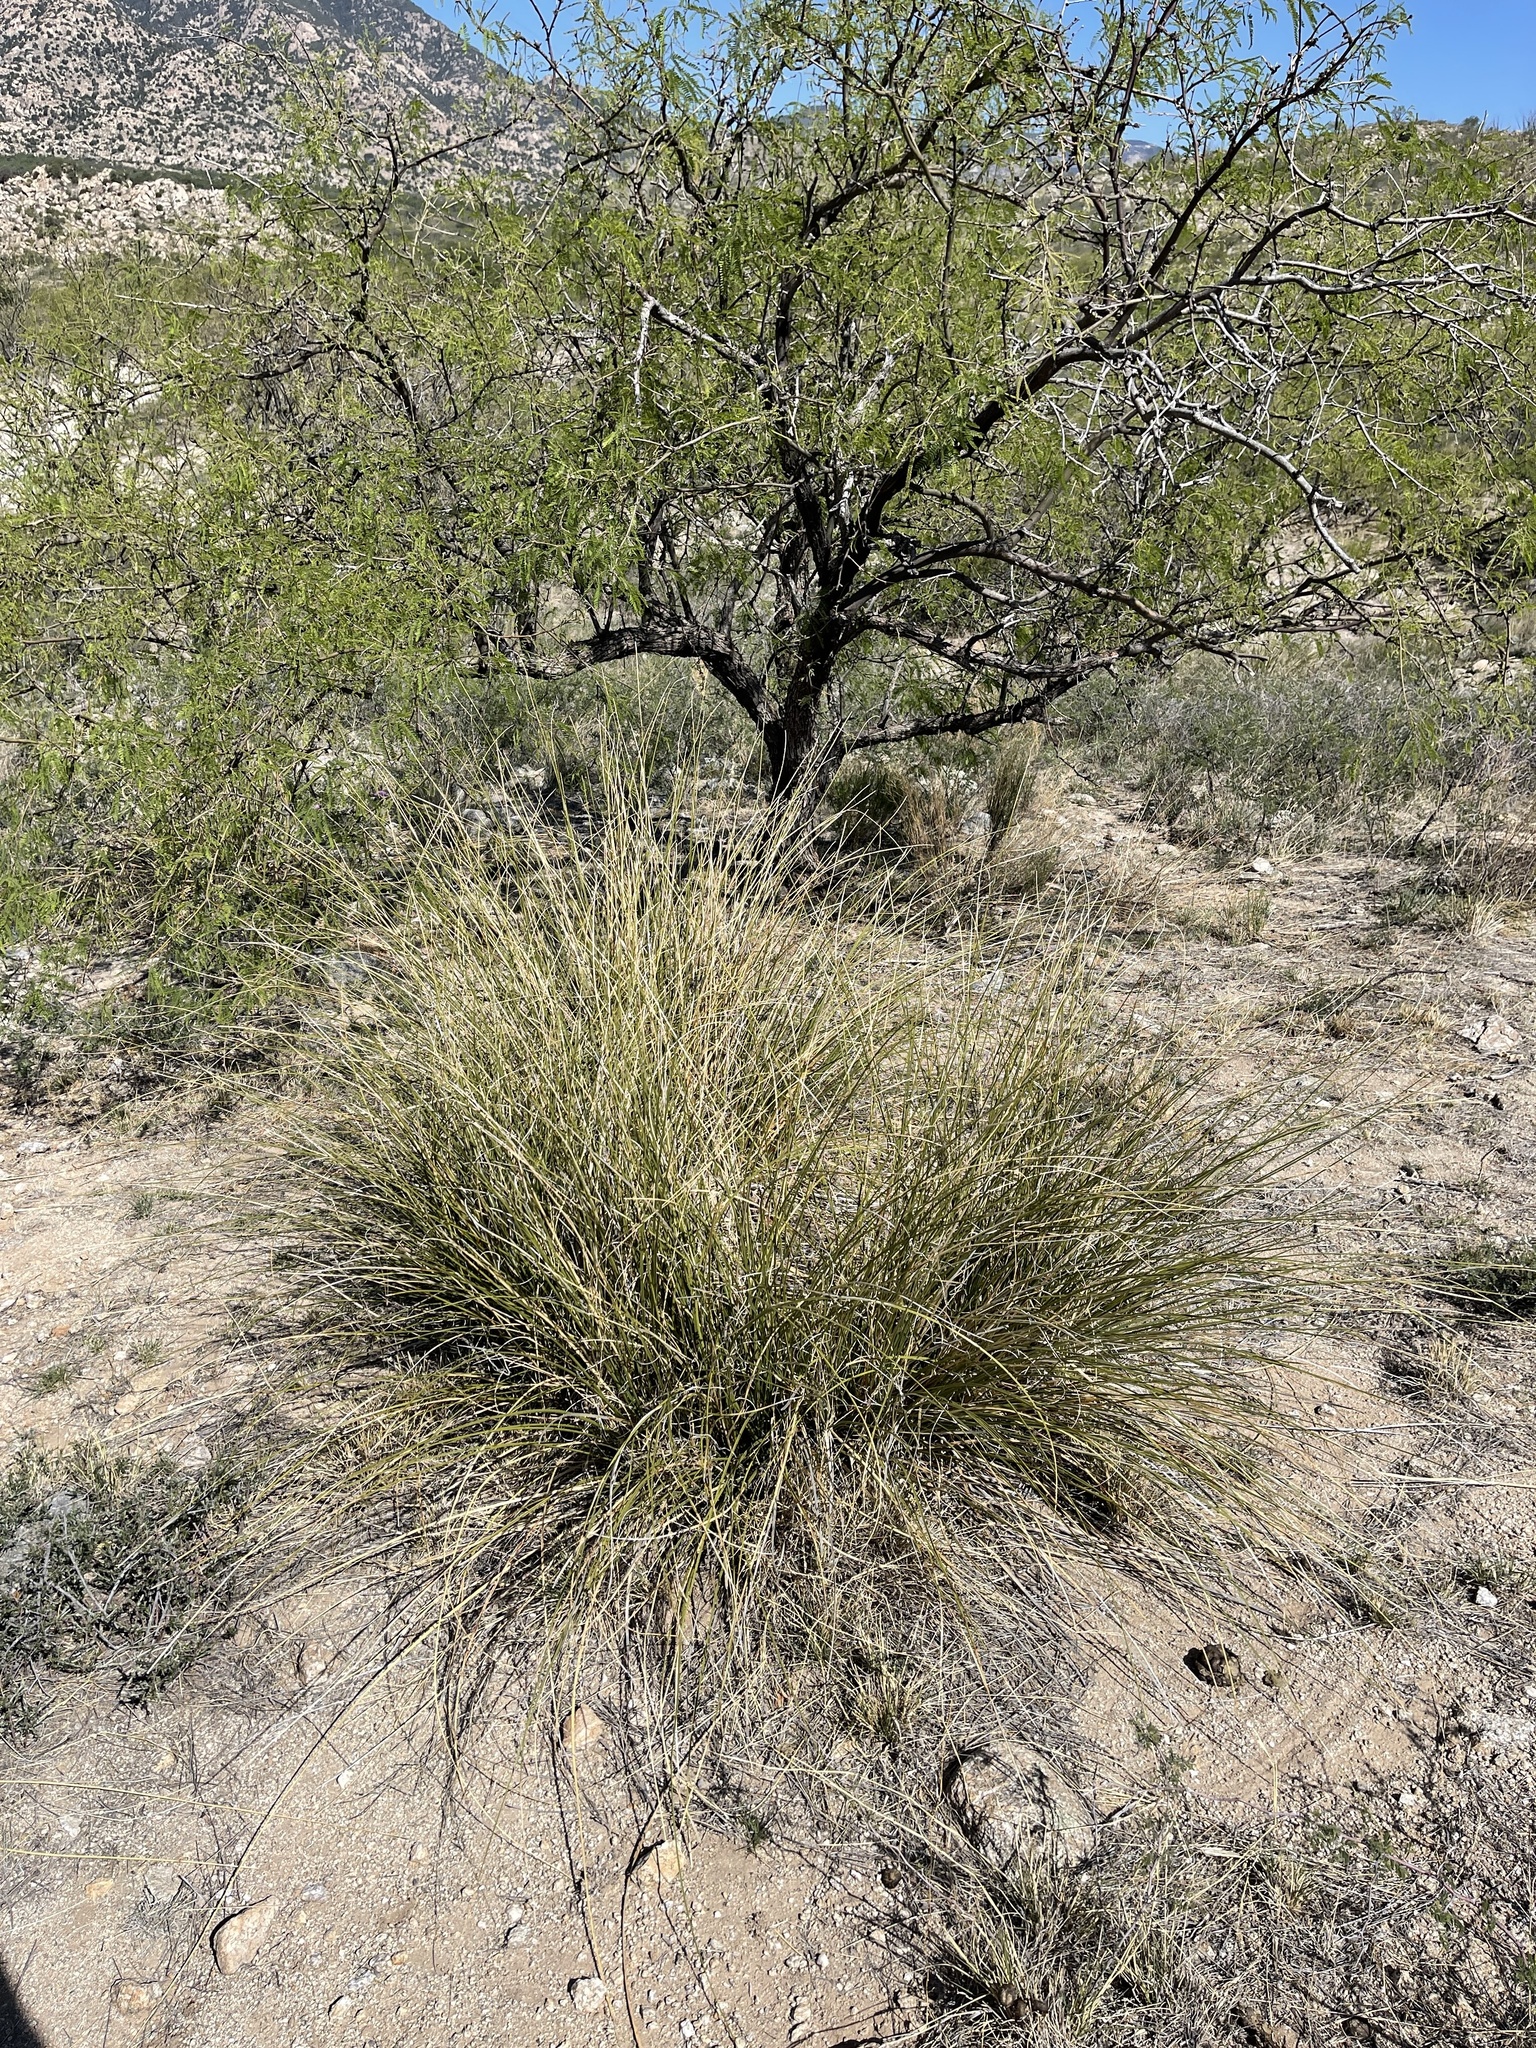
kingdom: Plantae
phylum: Tracheophyta
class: Liliopsida
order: Asparagales
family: Asparagaceae
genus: Nolina
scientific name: Nolina microcarpa
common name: Bear-grass
